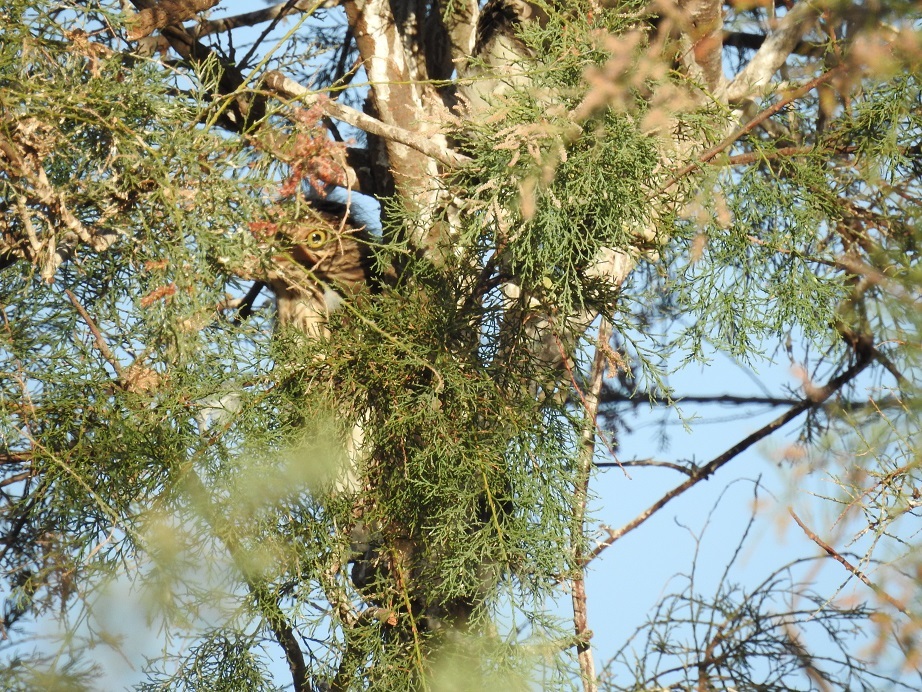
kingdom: Animalia
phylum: Chordata
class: Aves
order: Pelecaniformes
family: Ardeidae
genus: Nycticorax
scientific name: Nycticorax nycticorax
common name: Black-crowned night heron
